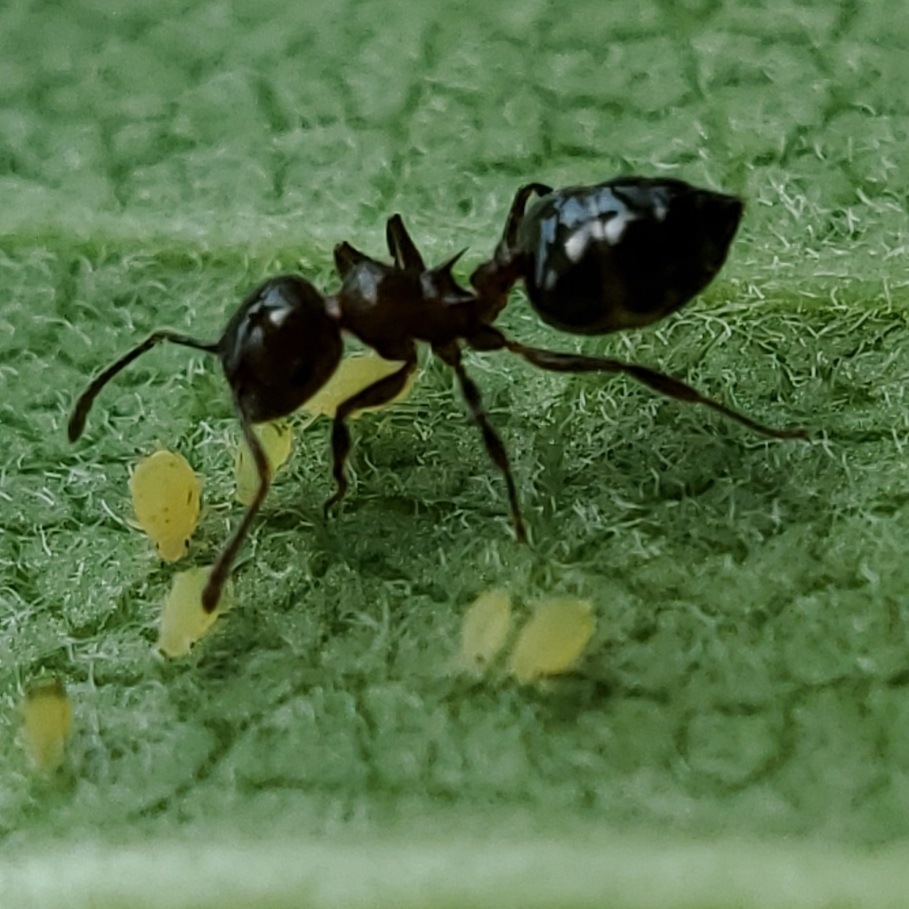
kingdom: Animalia
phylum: Arthropoda
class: Insecta
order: Hymenoptera
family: Formicidae
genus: Crematogaster
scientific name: Crematogaster pilosa
